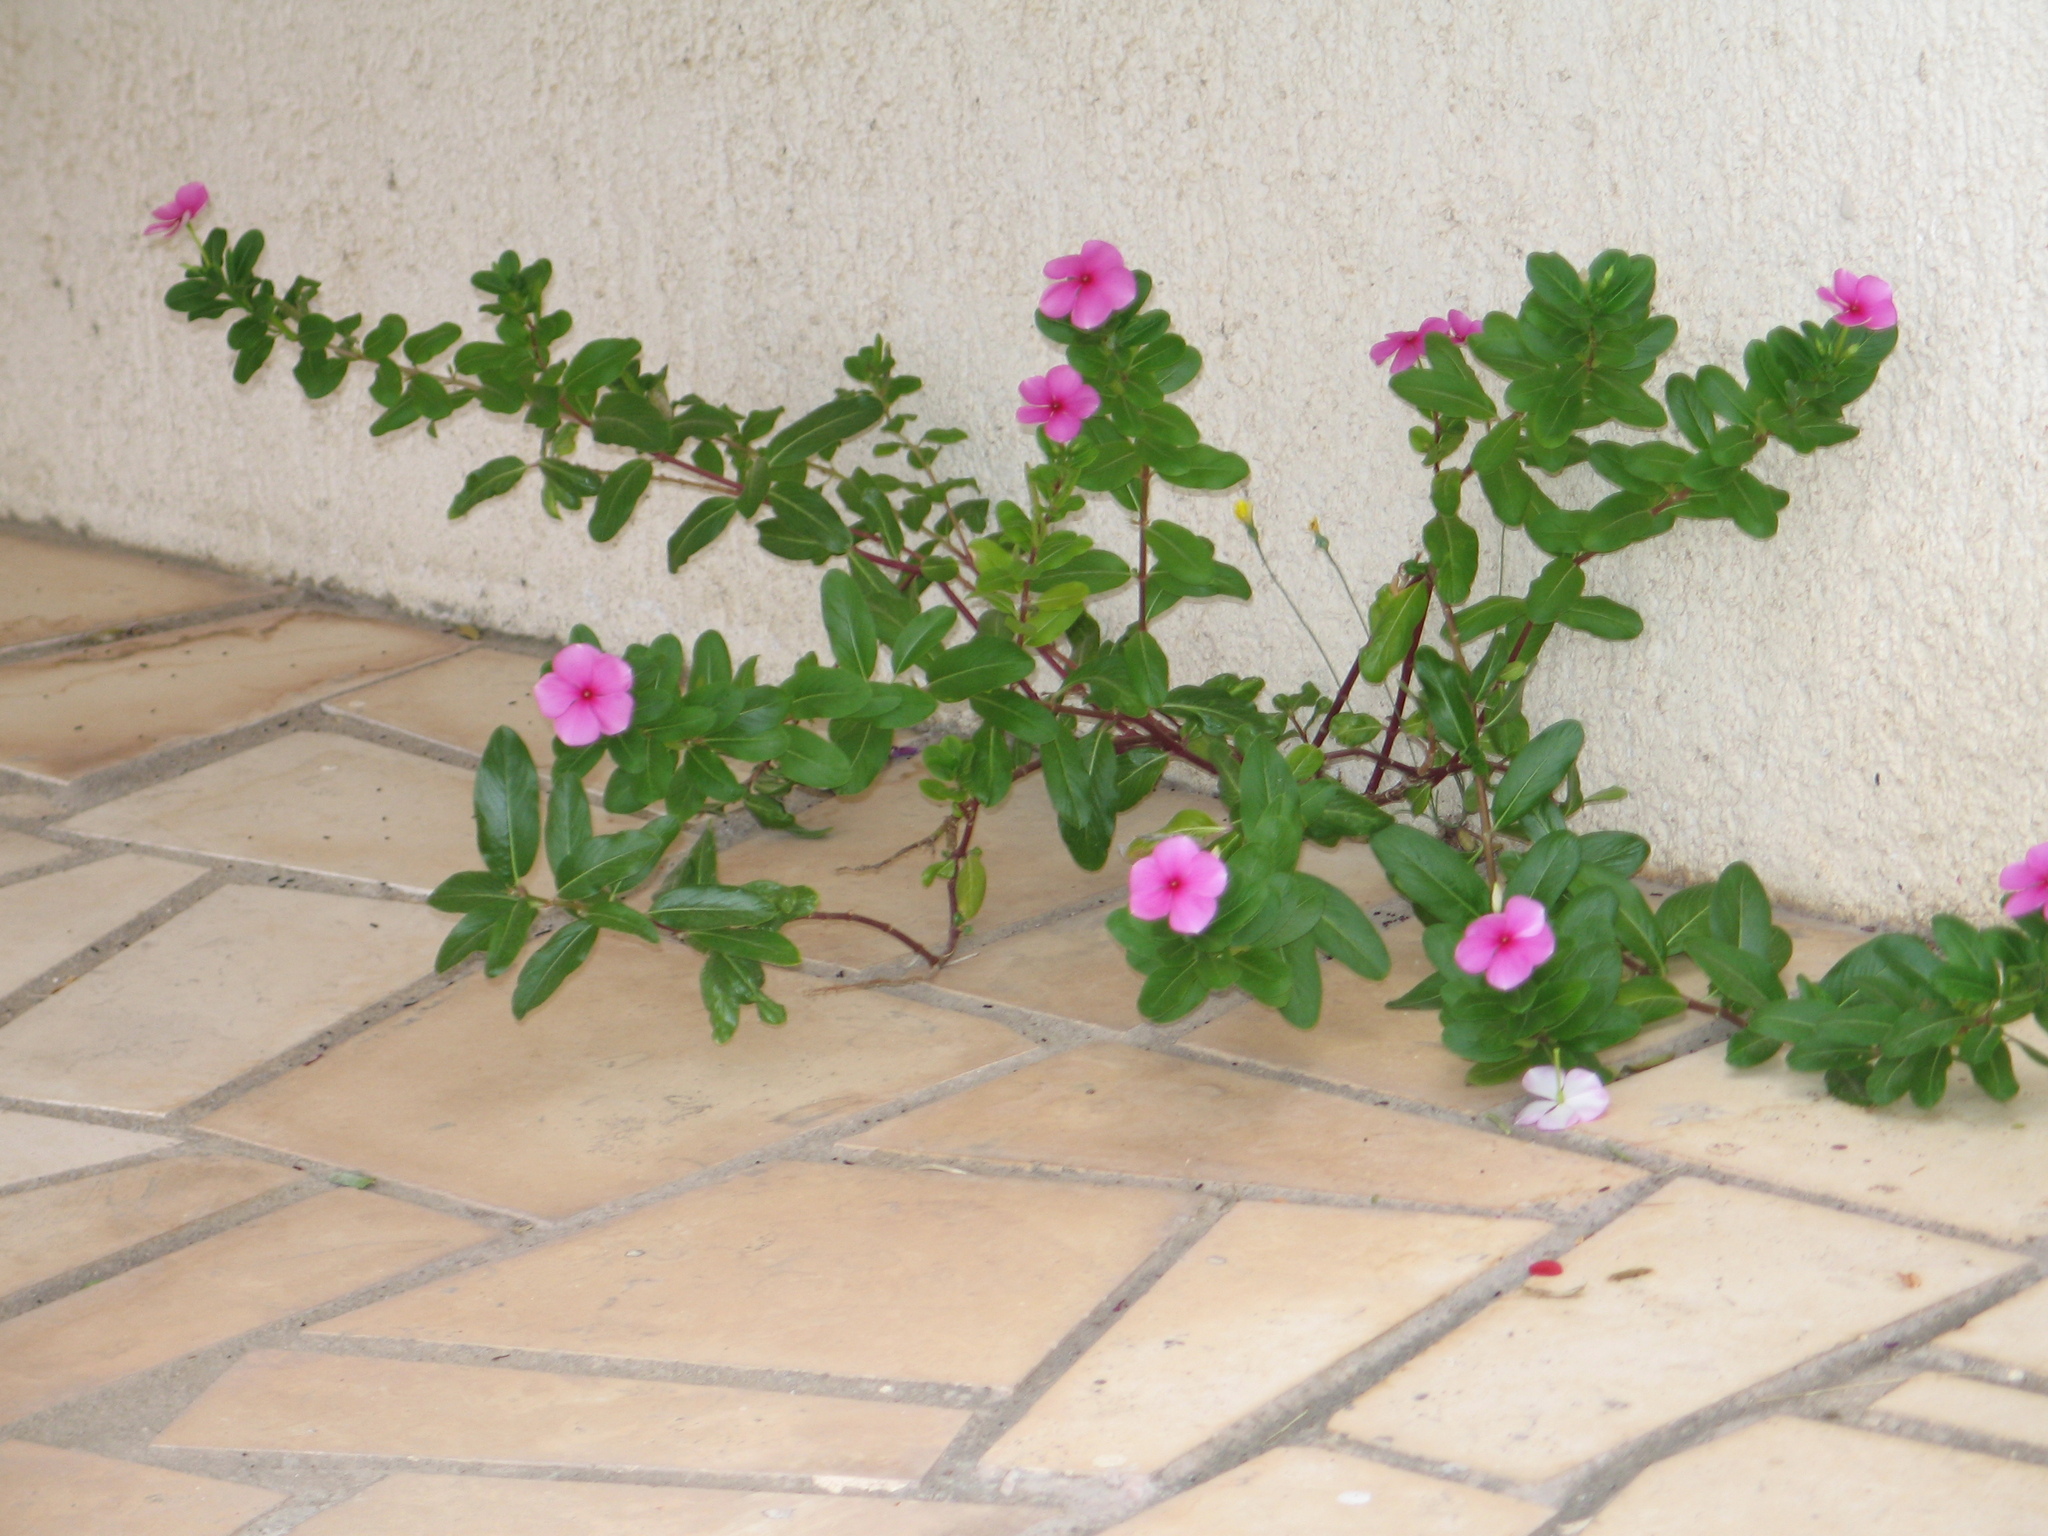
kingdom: Plantae
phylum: Tracheophyta
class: Magnoliopsida
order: Gentianales
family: Apocynaceae
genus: Catharanthus
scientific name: Catharanthus roseus
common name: Madagascar periwinkle
